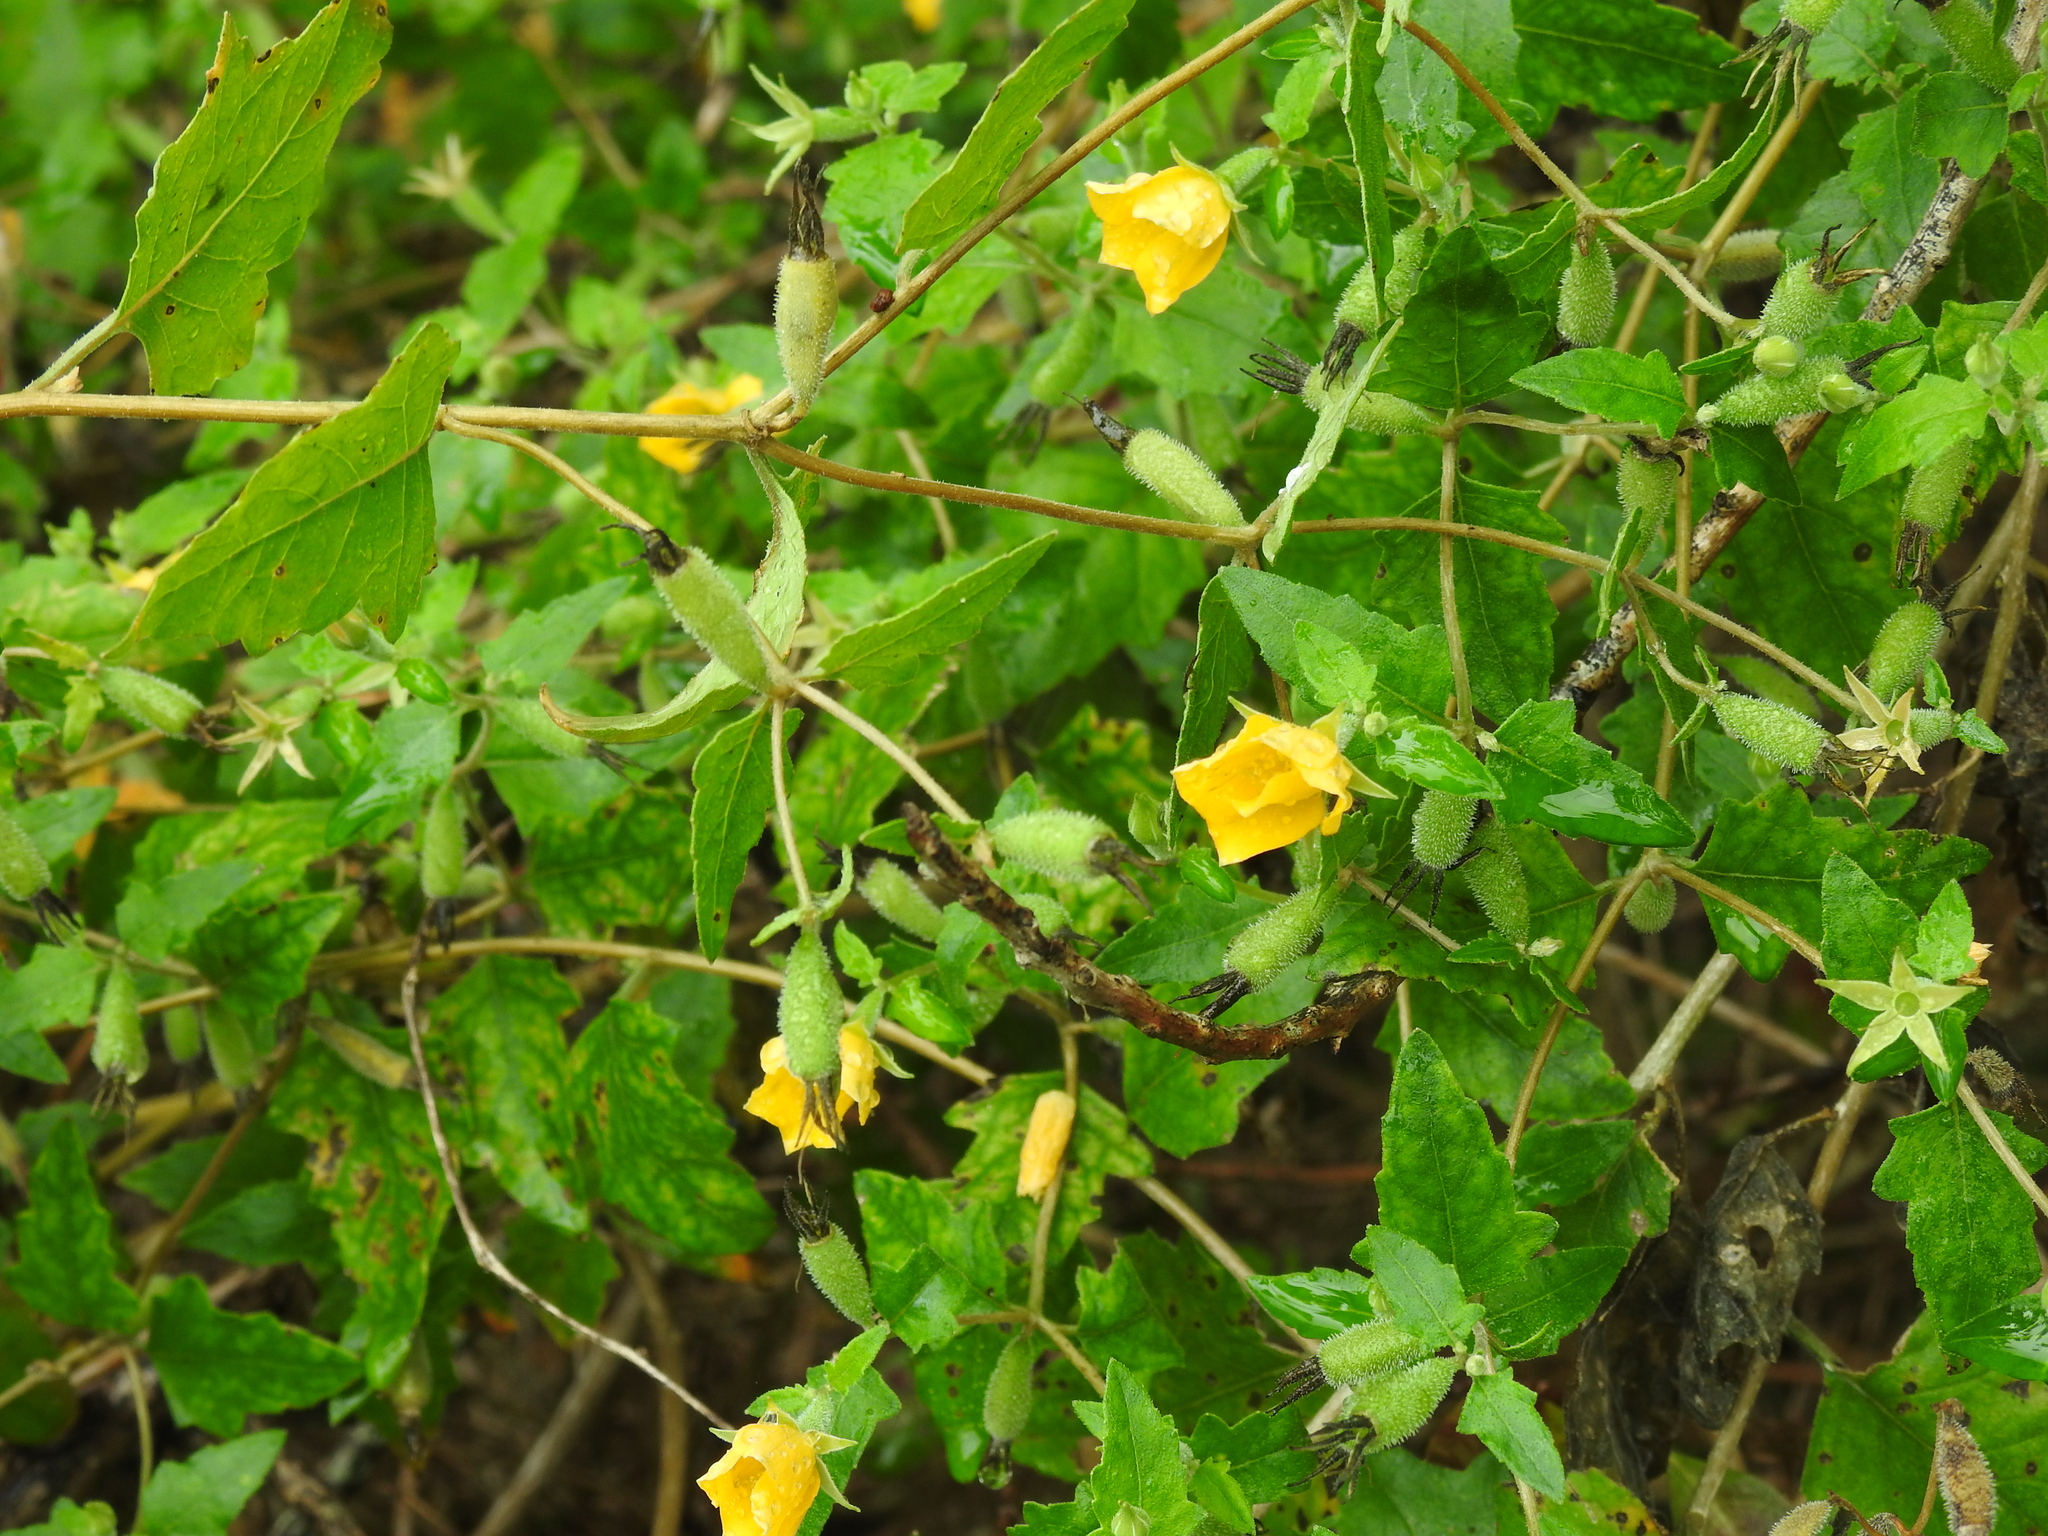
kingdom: Plantae
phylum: Tracheophyta
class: Magnoliopsida
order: Cornales
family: Loasaceae
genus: Mentzelia
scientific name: Mentzelia floridana
